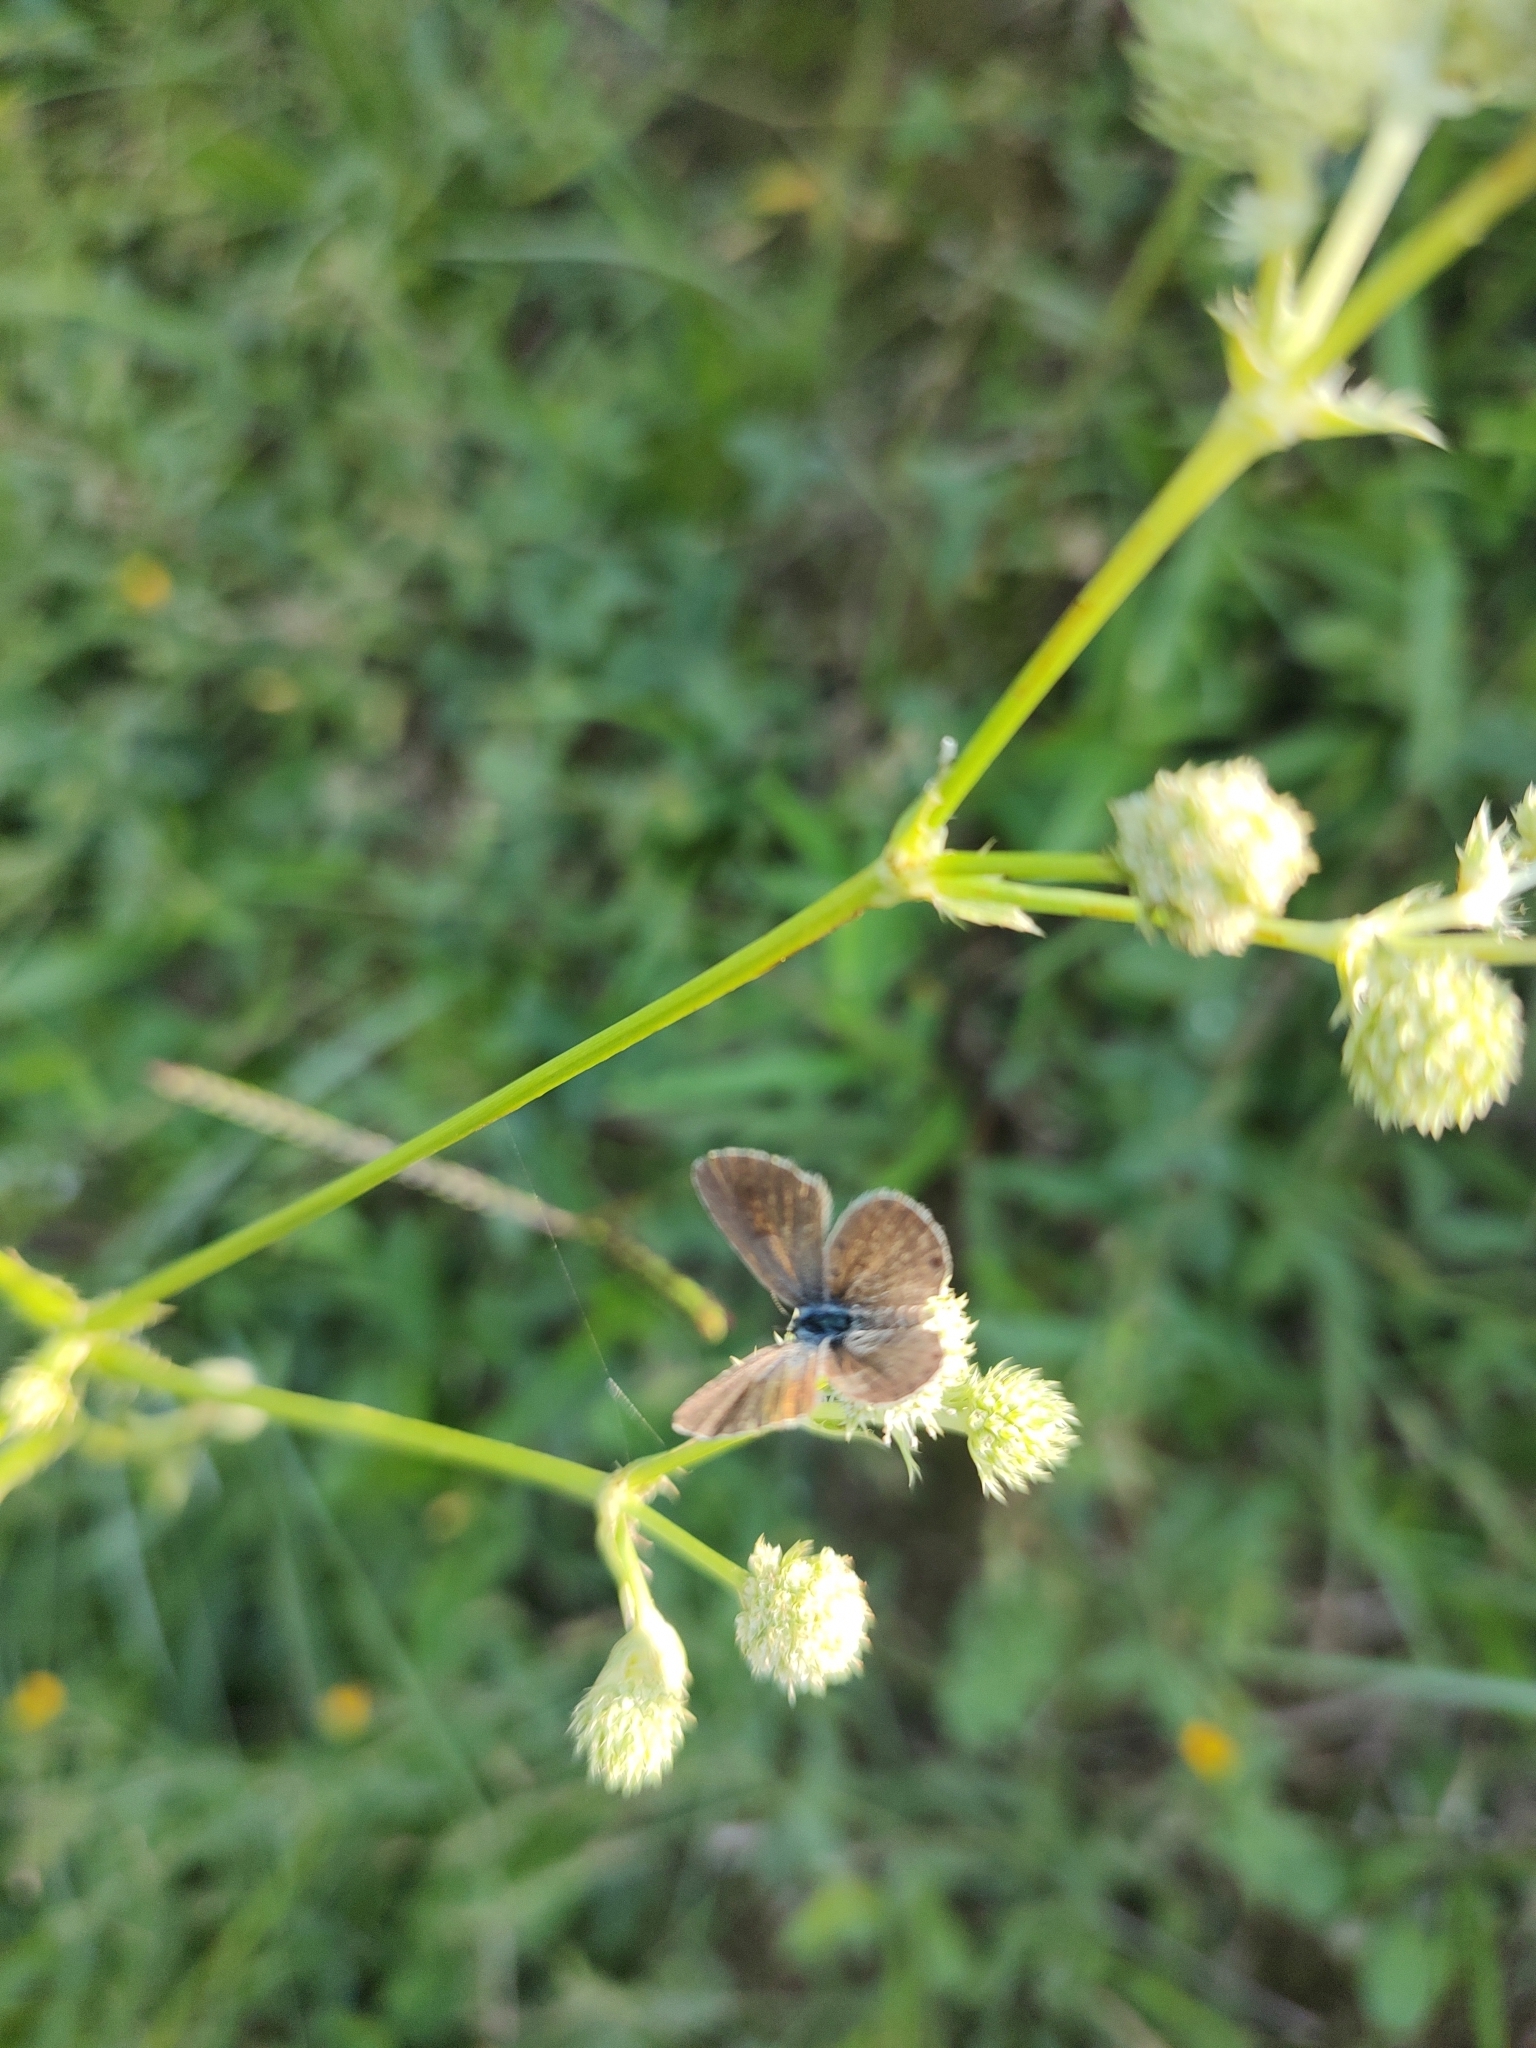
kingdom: Animalia
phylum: Arthropoda
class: Insecta
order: Lepidoptera
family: Lycaenidae
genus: Hemiargus
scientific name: Hemiargus hanno
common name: Common blue
